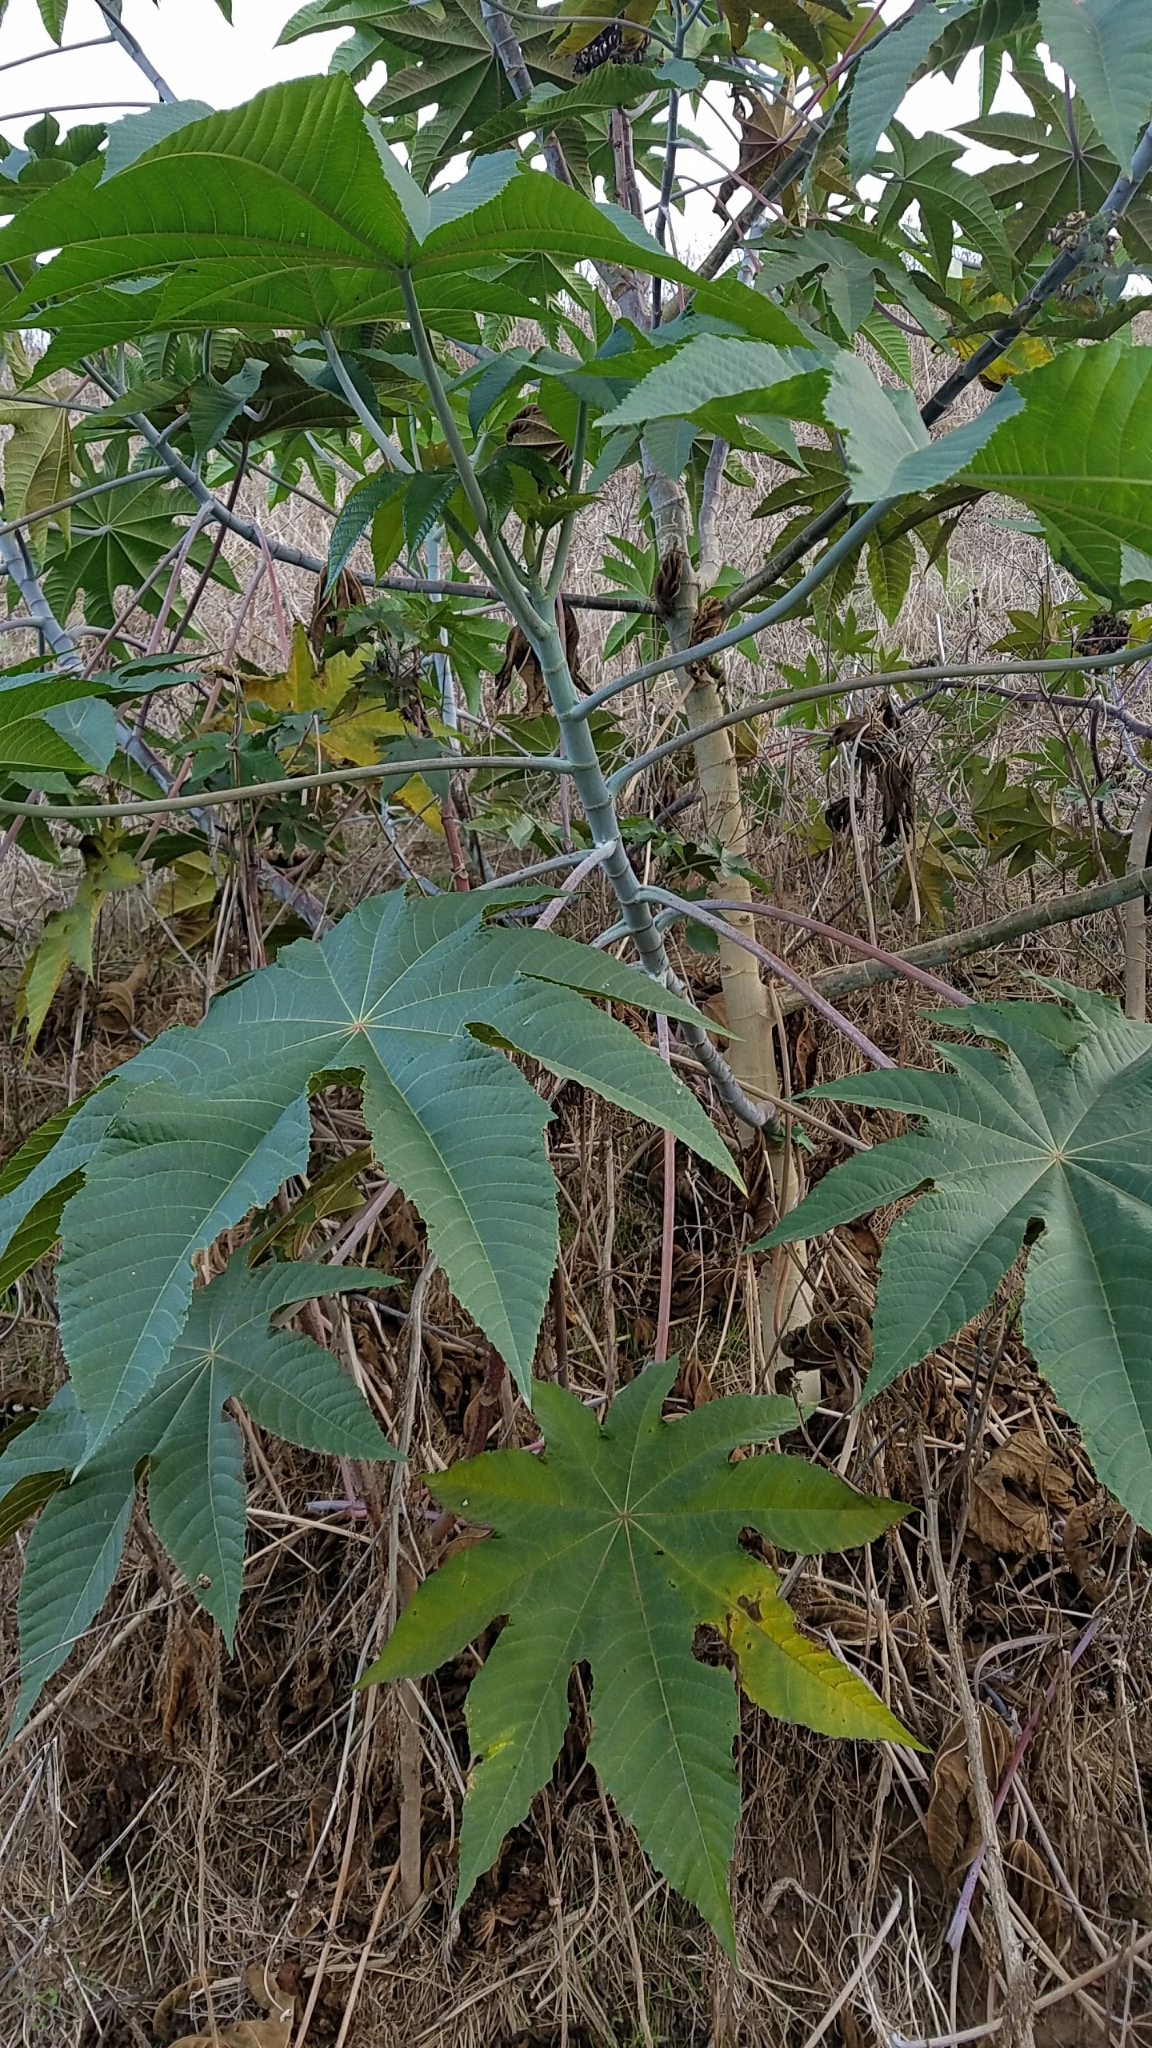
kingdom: Plantae
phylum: Tracheophyta
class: Magnoliopsida
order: Malpighiales
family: Euphorbiaceae
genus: Ricinus
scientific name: Ricinus communis
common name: Castor-oil-plant
